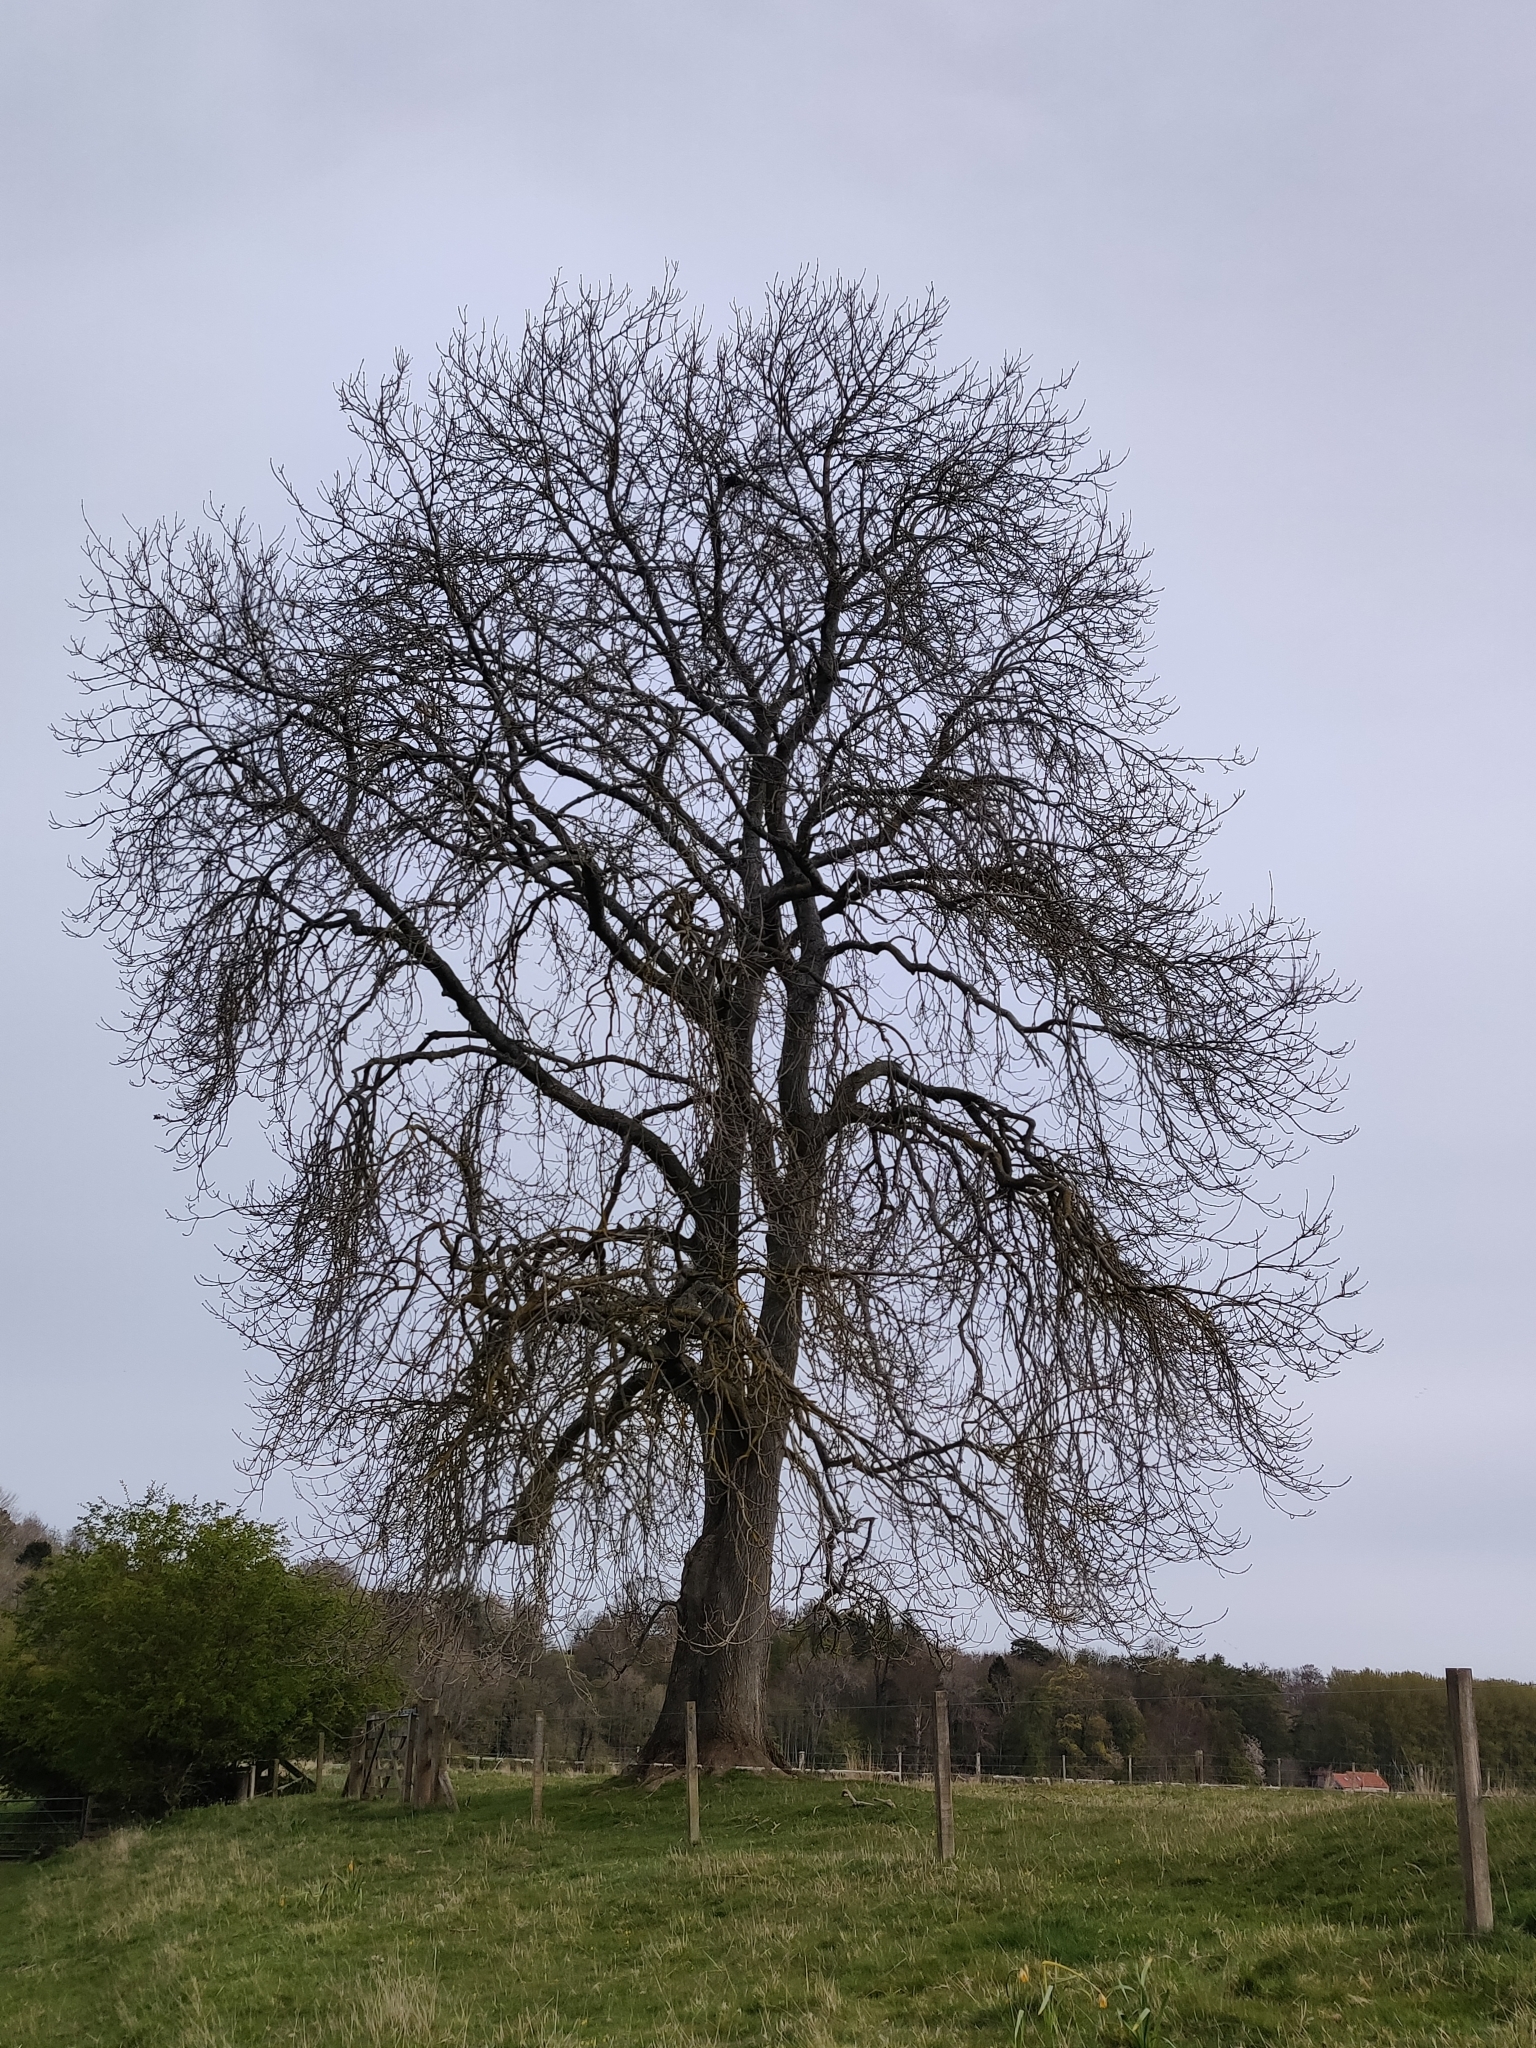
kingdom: Plantae
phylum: Tracheophyta
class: Magnoliopsida
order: Lamiales
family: Oleaceae
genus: Fraxinus
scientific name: Fraxinus excelsior
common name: European ash
